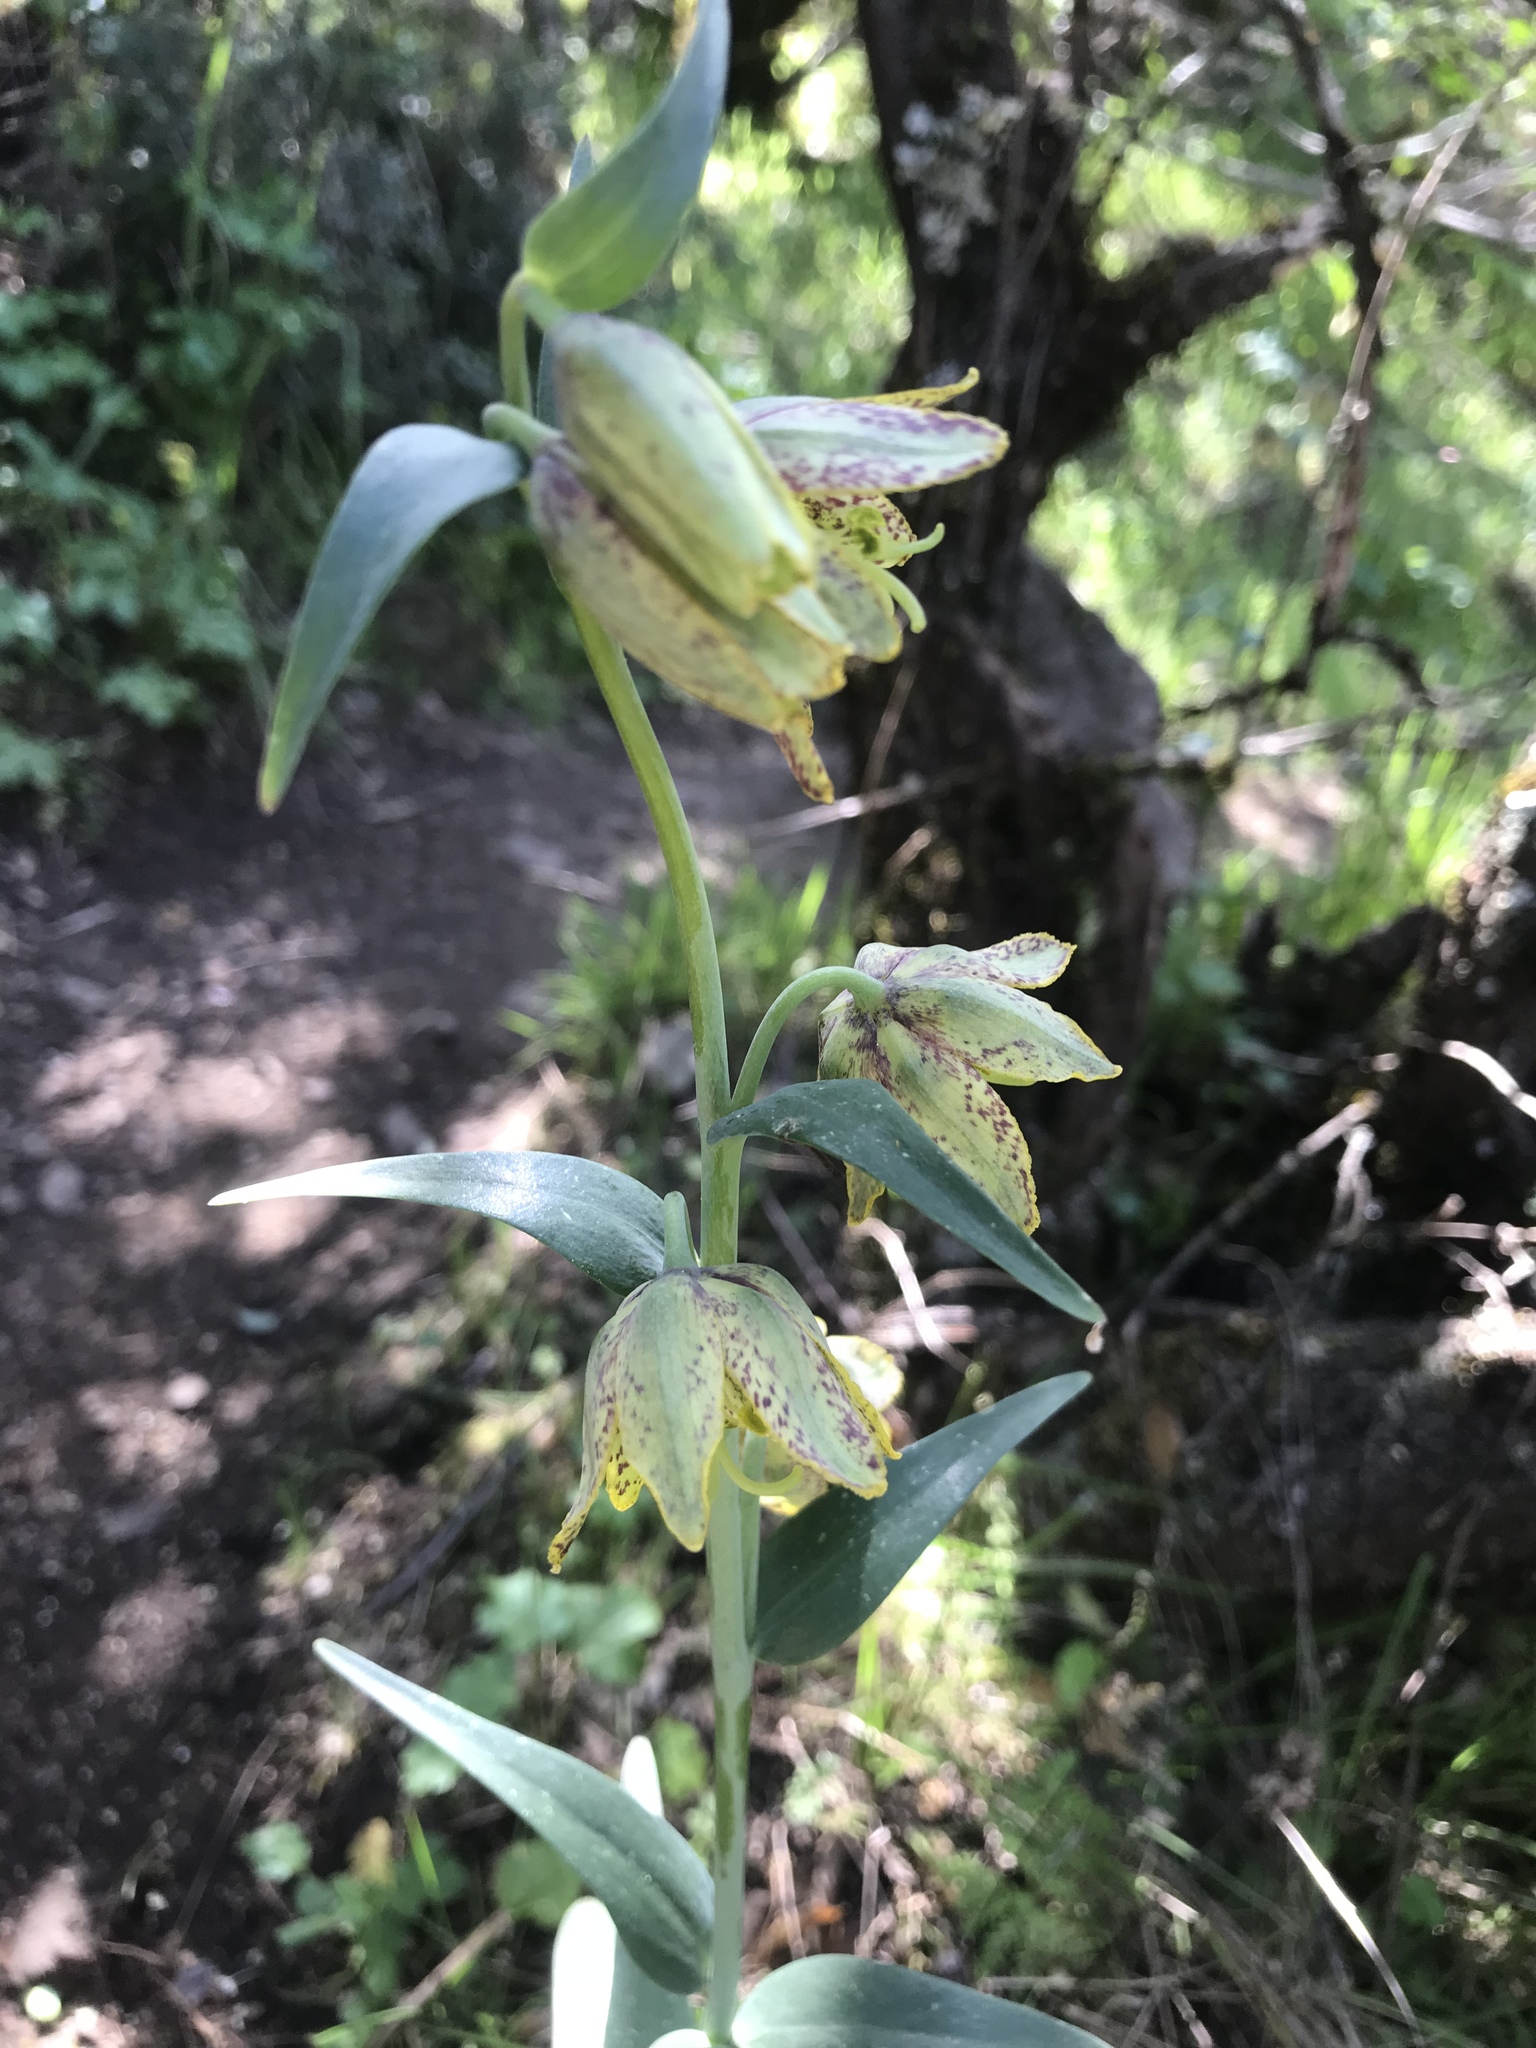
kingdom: Plantae
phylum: Tracheophyta
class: Liliopsida
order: Liliales
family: Liliaceae
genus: Fritillaria
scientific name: Fritillaria affinis
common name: Ojai fritillary
